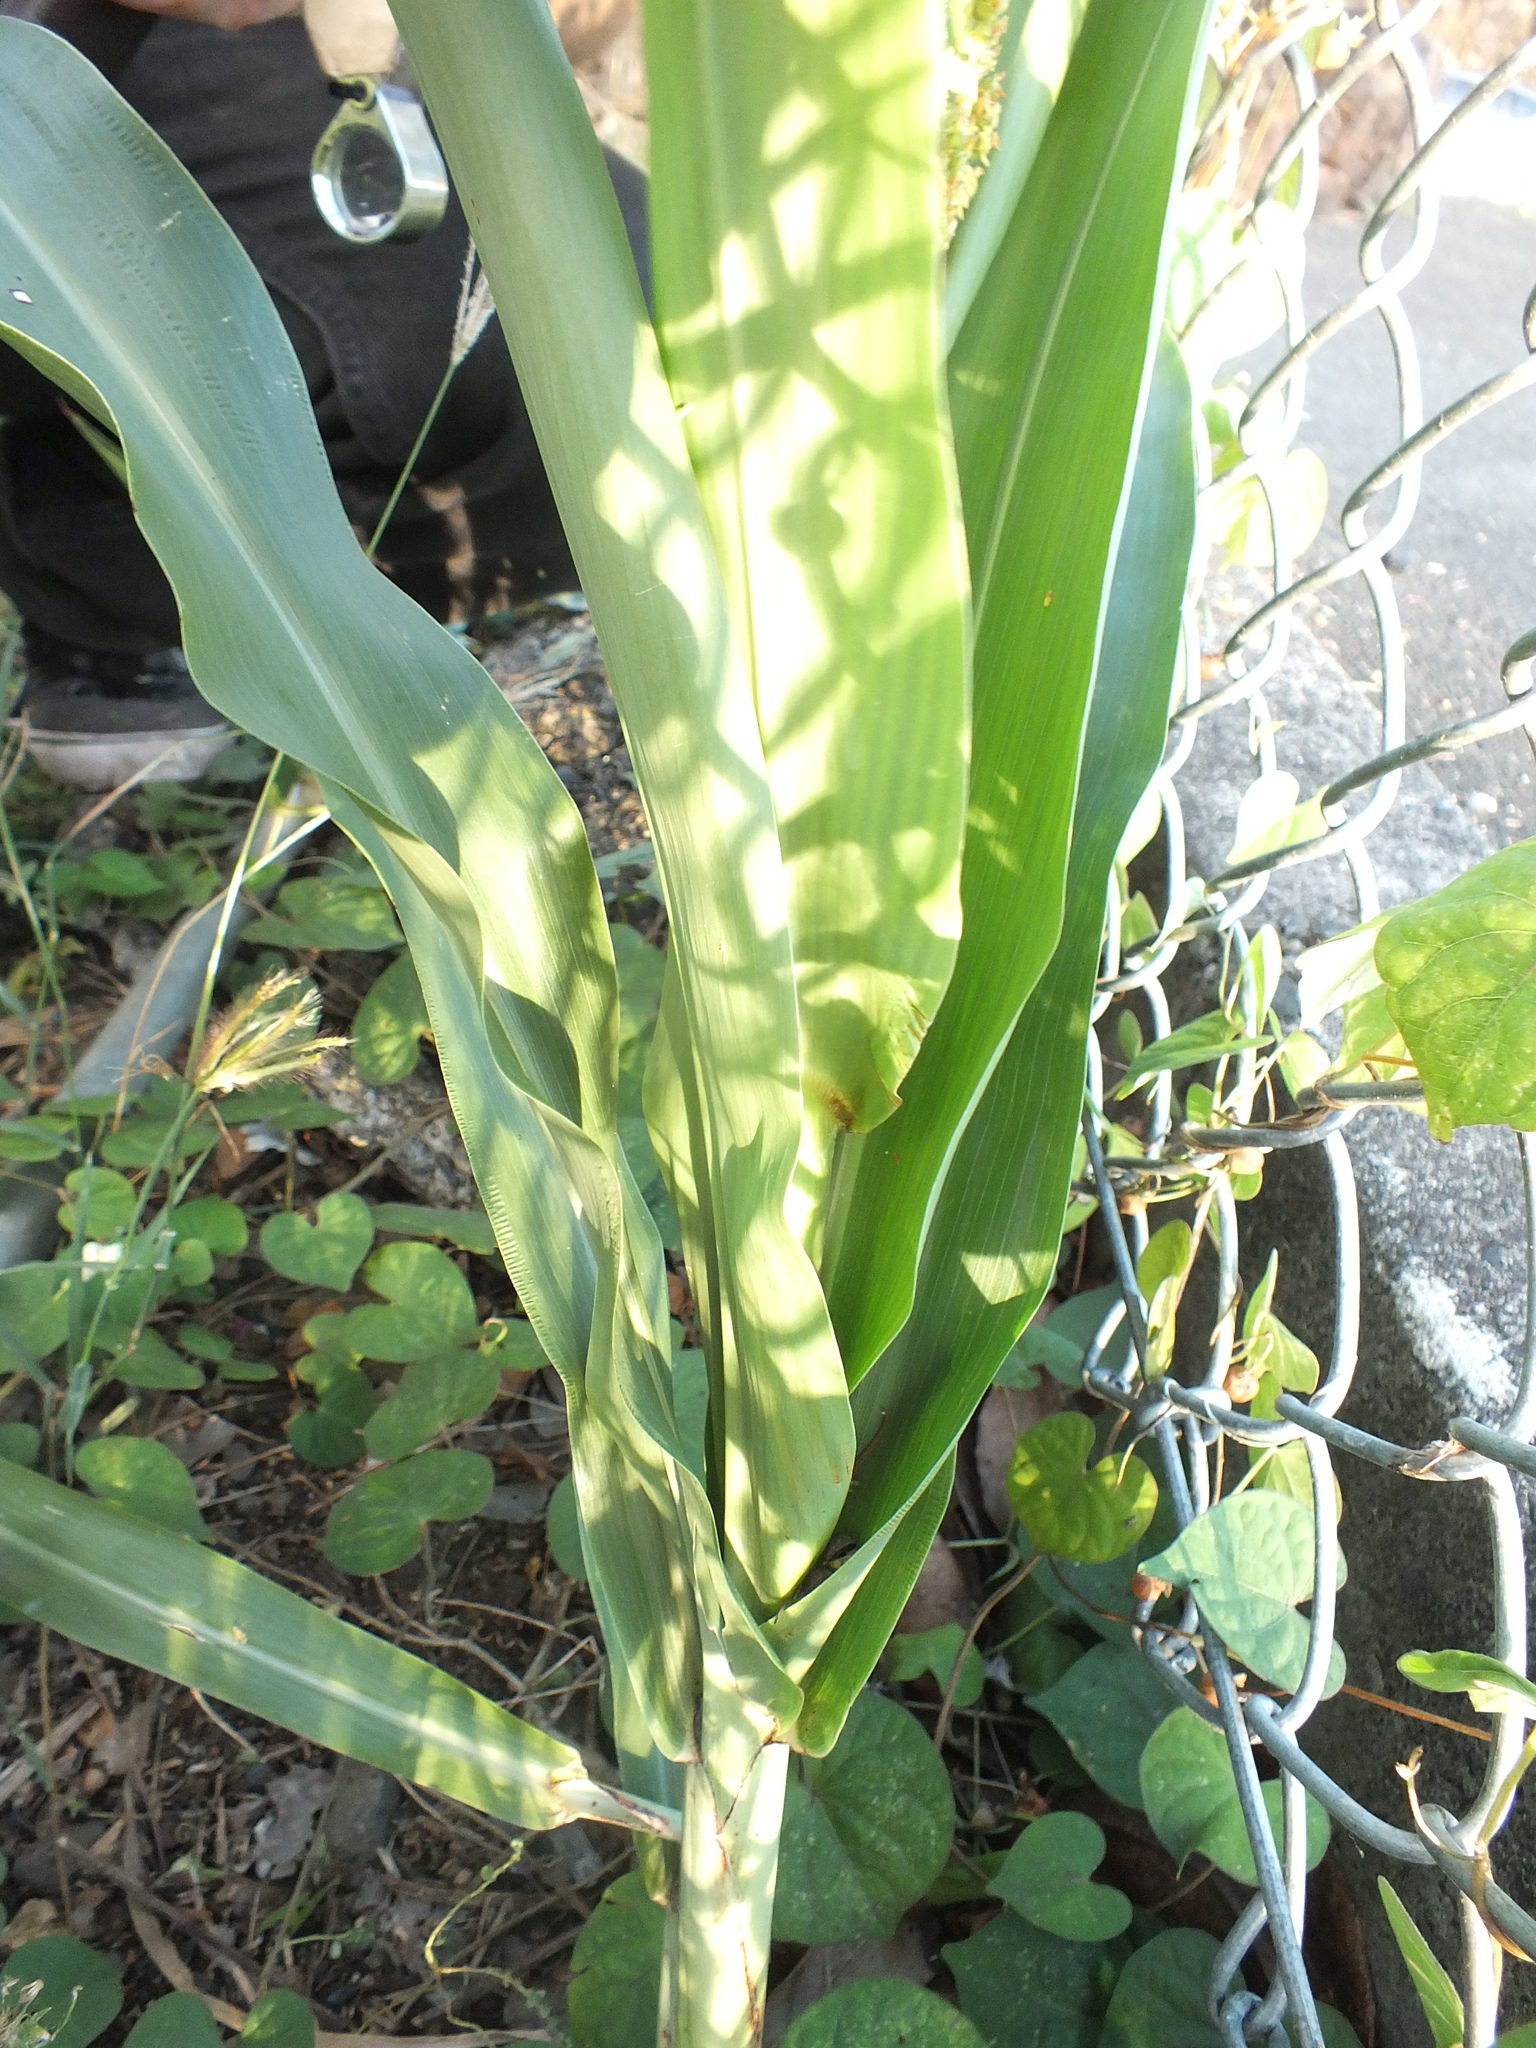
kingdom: Plantae
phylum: Tracheophyta
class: Liliopsida
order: Poales
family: Poaceae
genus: Sorghum
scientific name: Sorghum bicolor
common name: Sorghum
